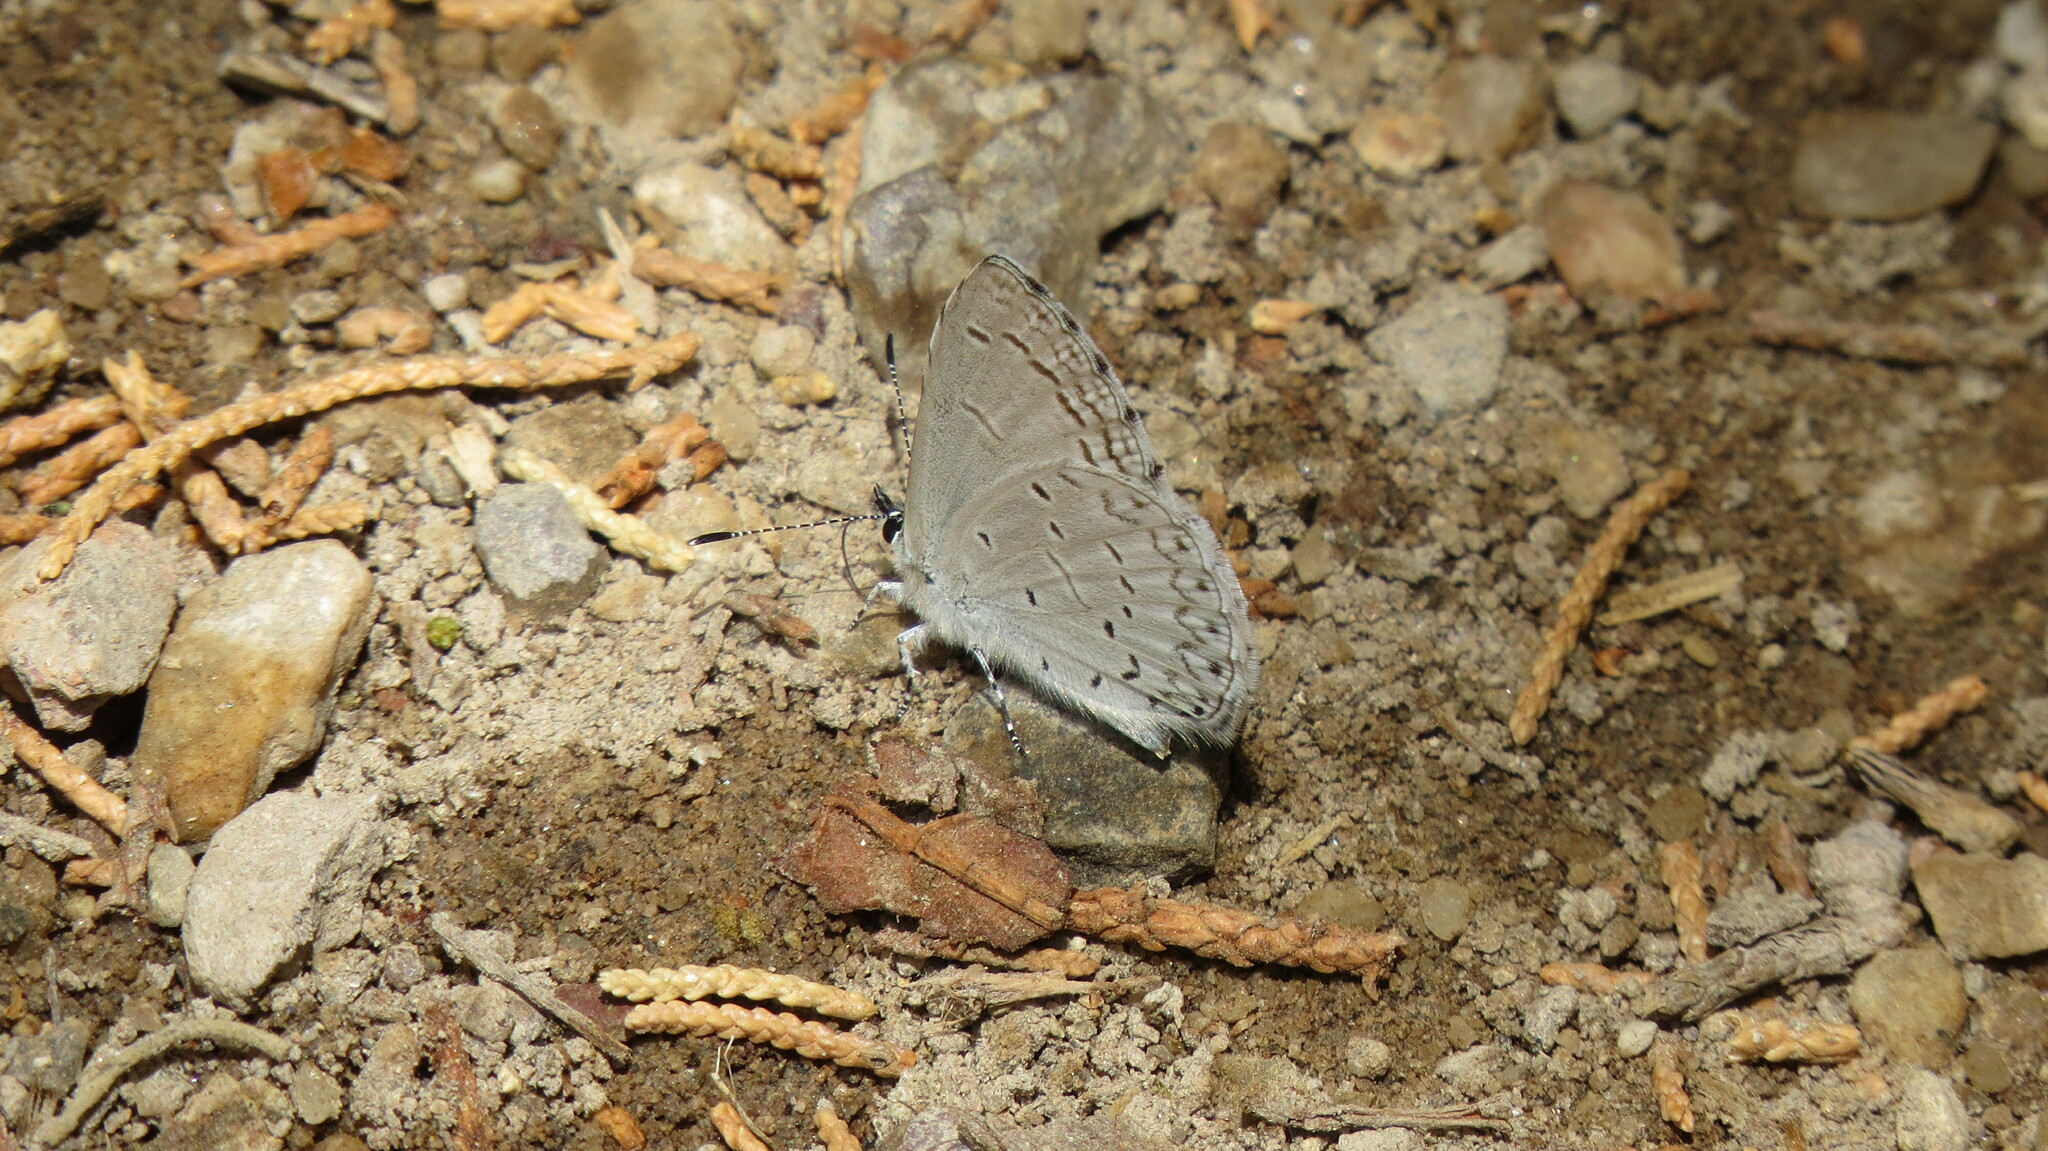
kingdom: Animalia
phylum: Arthropoda
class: Insecta
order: Lepidoptera
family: Lycaenidae
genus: Celastrina
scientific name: Celastrina ladon
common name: Spring azure
